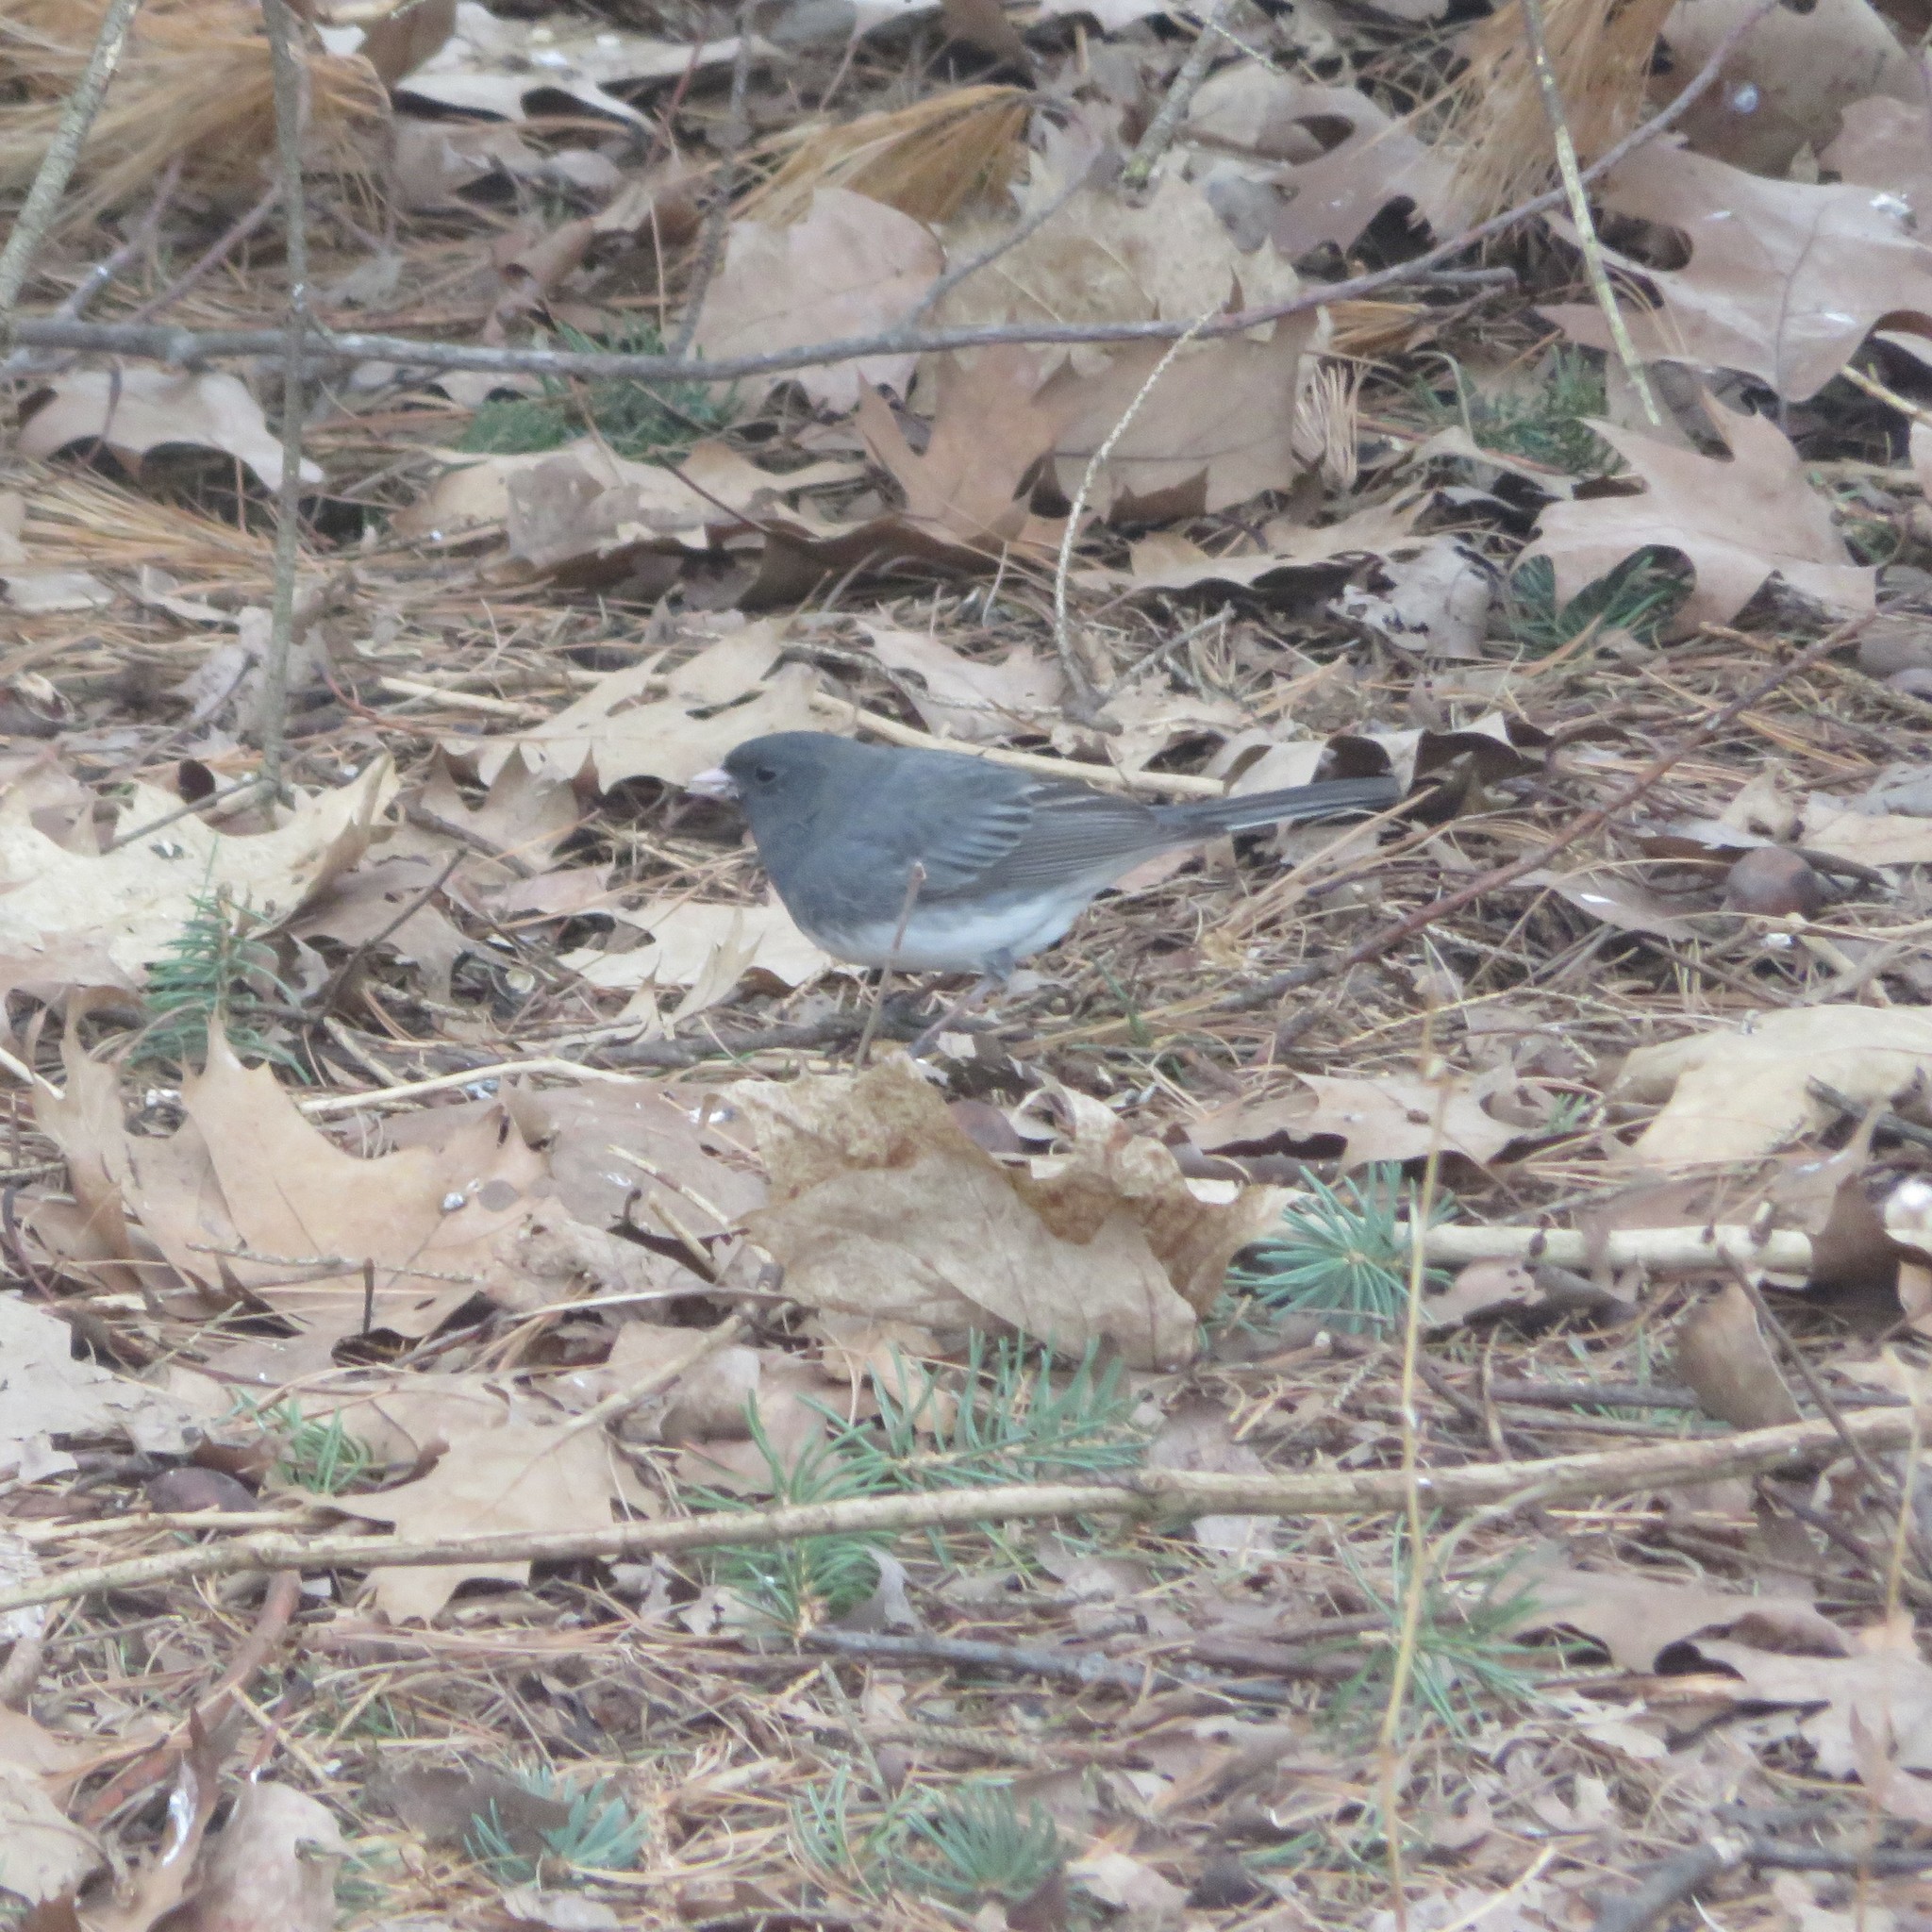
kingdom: Animalia
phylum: Chordata
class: Aves
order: Passeriformes
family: Passerellidae
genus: Junco
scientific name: Junco hyemalis
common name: Dark-eyed junco
